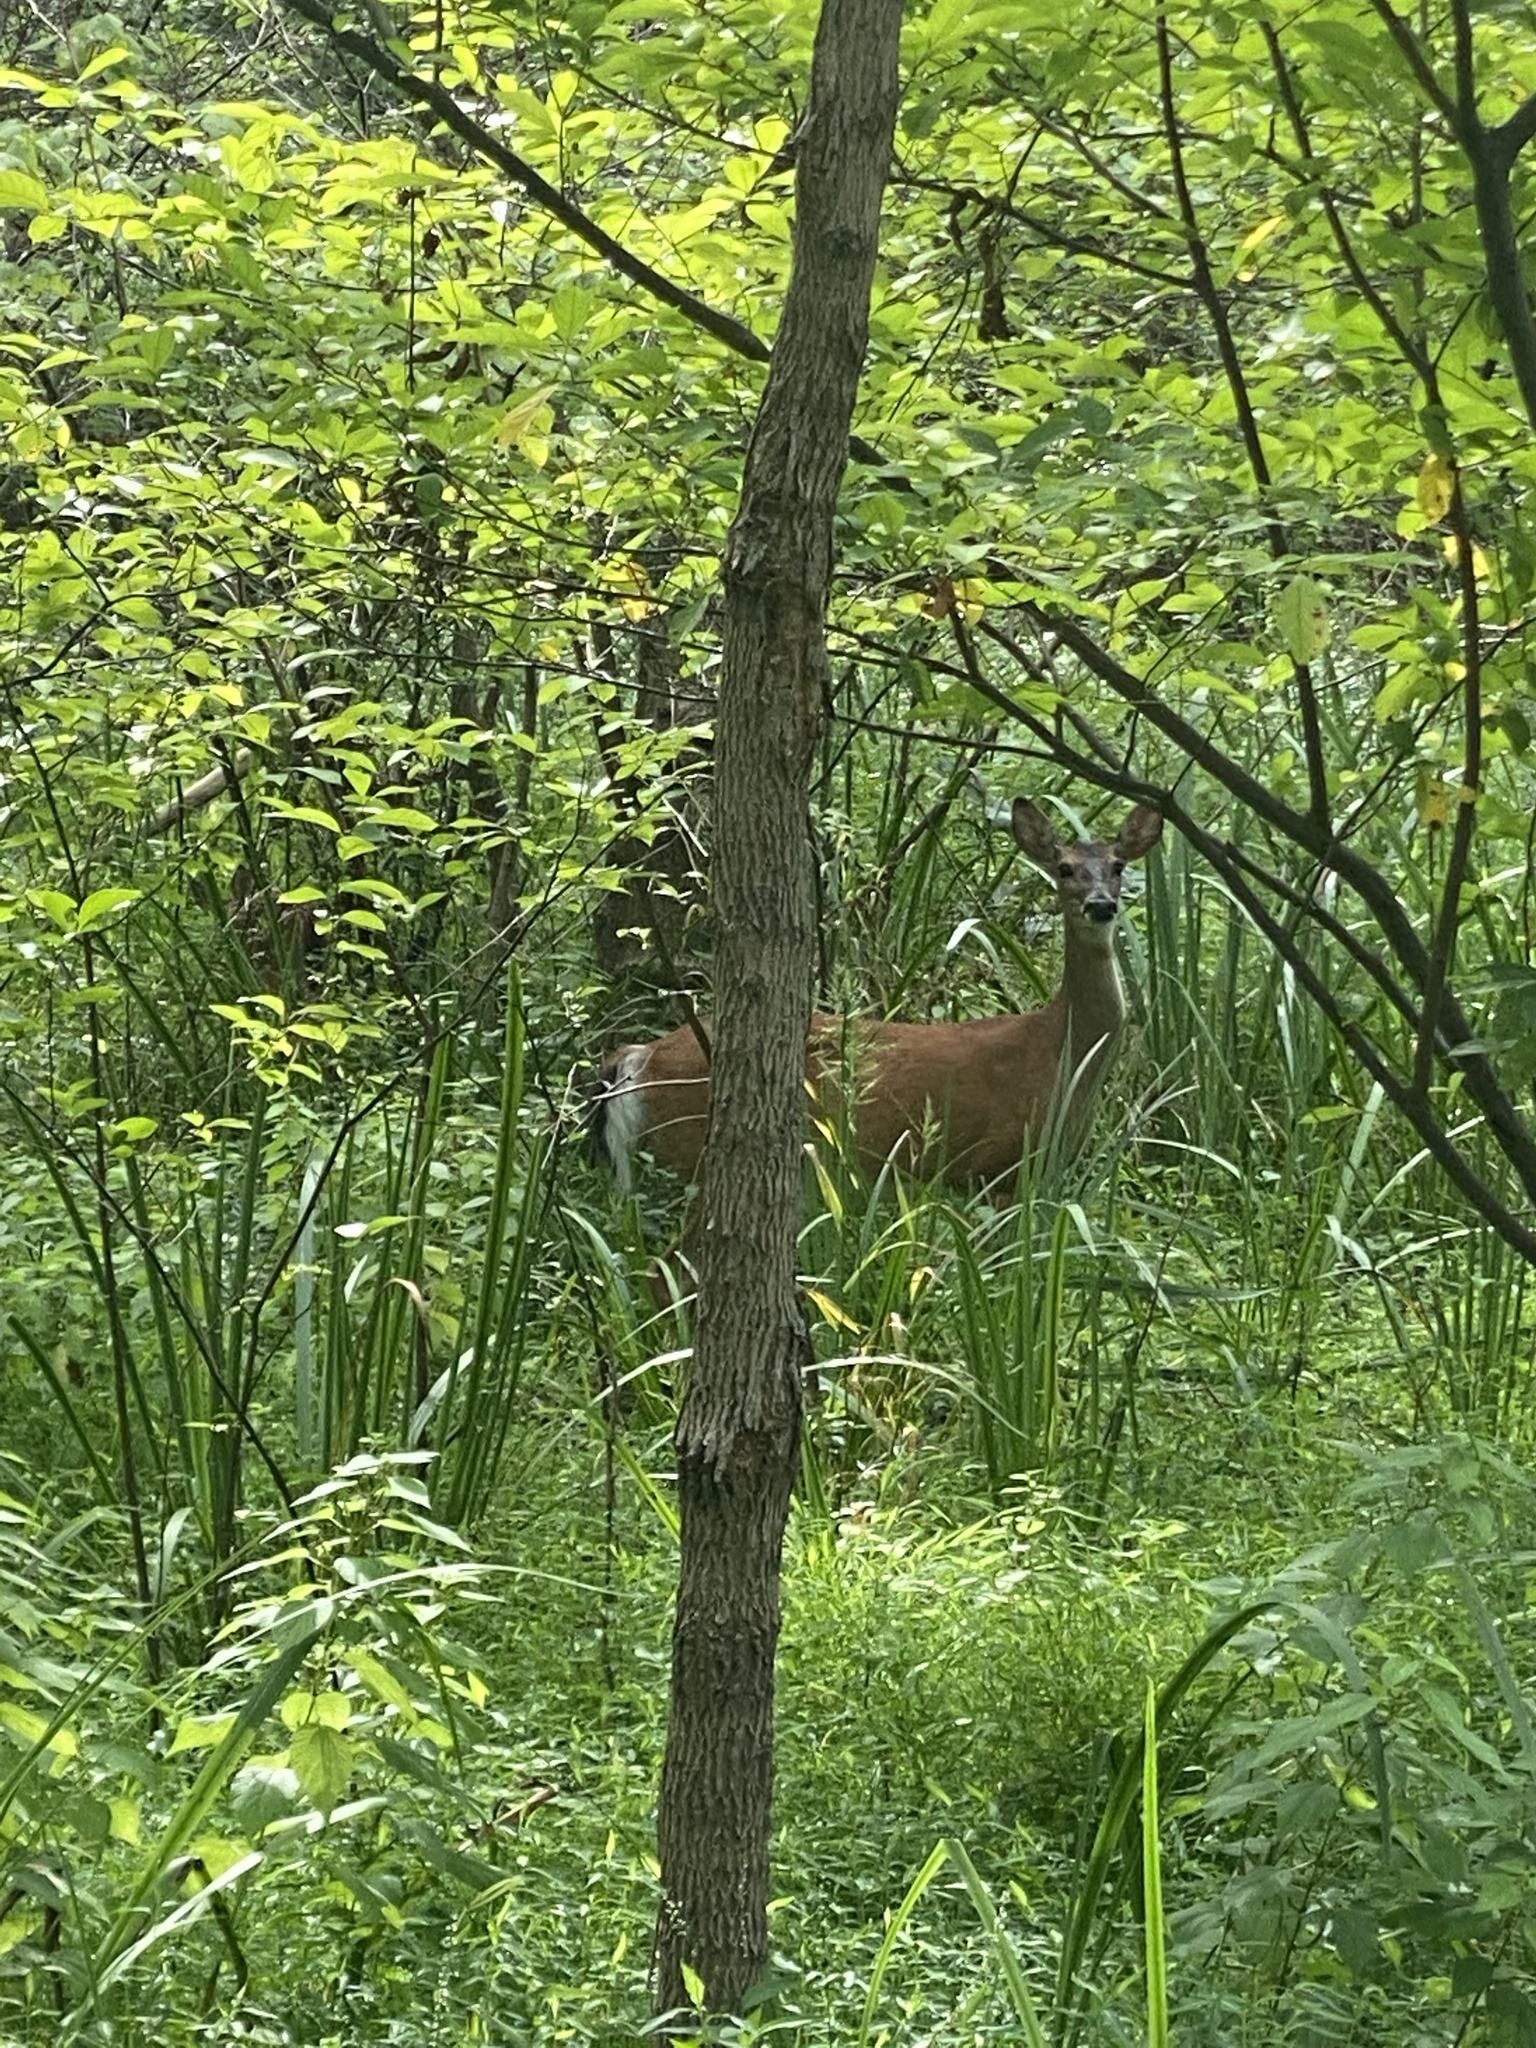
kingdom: Animalia
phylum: Chordata
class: Mammalia
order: Artiodactyla
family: Cervidae
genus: Odocoileus
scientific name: Odocoileus virginianus
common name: White-tailed deer
